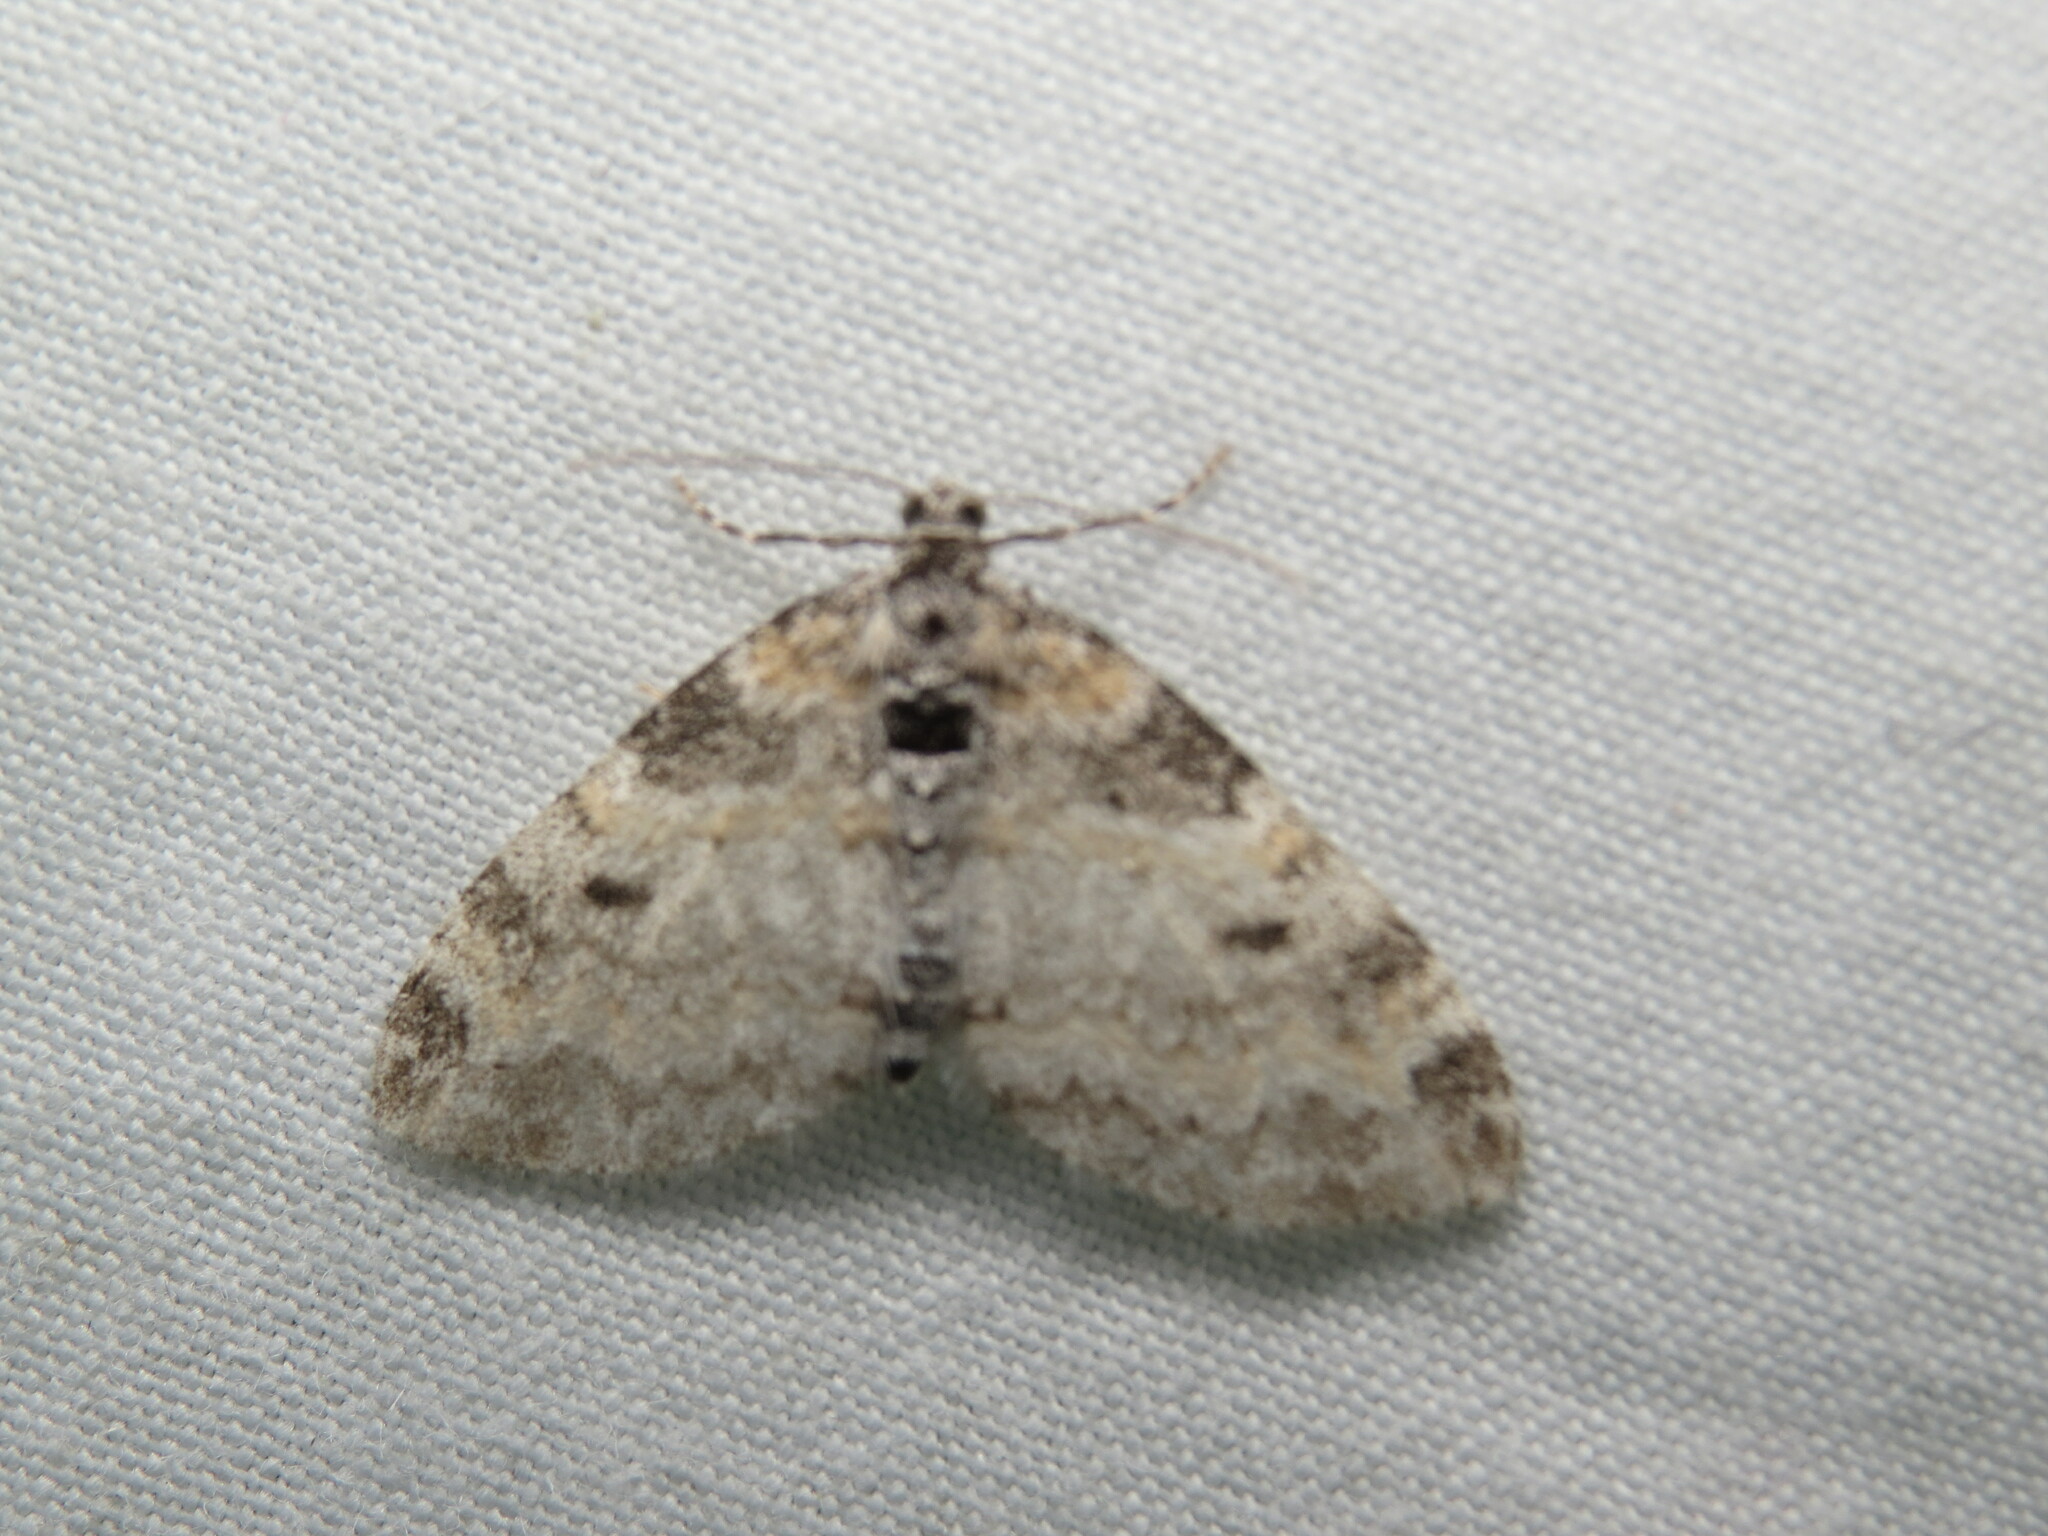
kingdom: Animalia
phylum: Arthropoda
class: Insecta
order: Lepidoptera
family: Geometridae
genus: Lobophora
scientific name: Lobophora nivigerata
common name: Powdered bigwing
